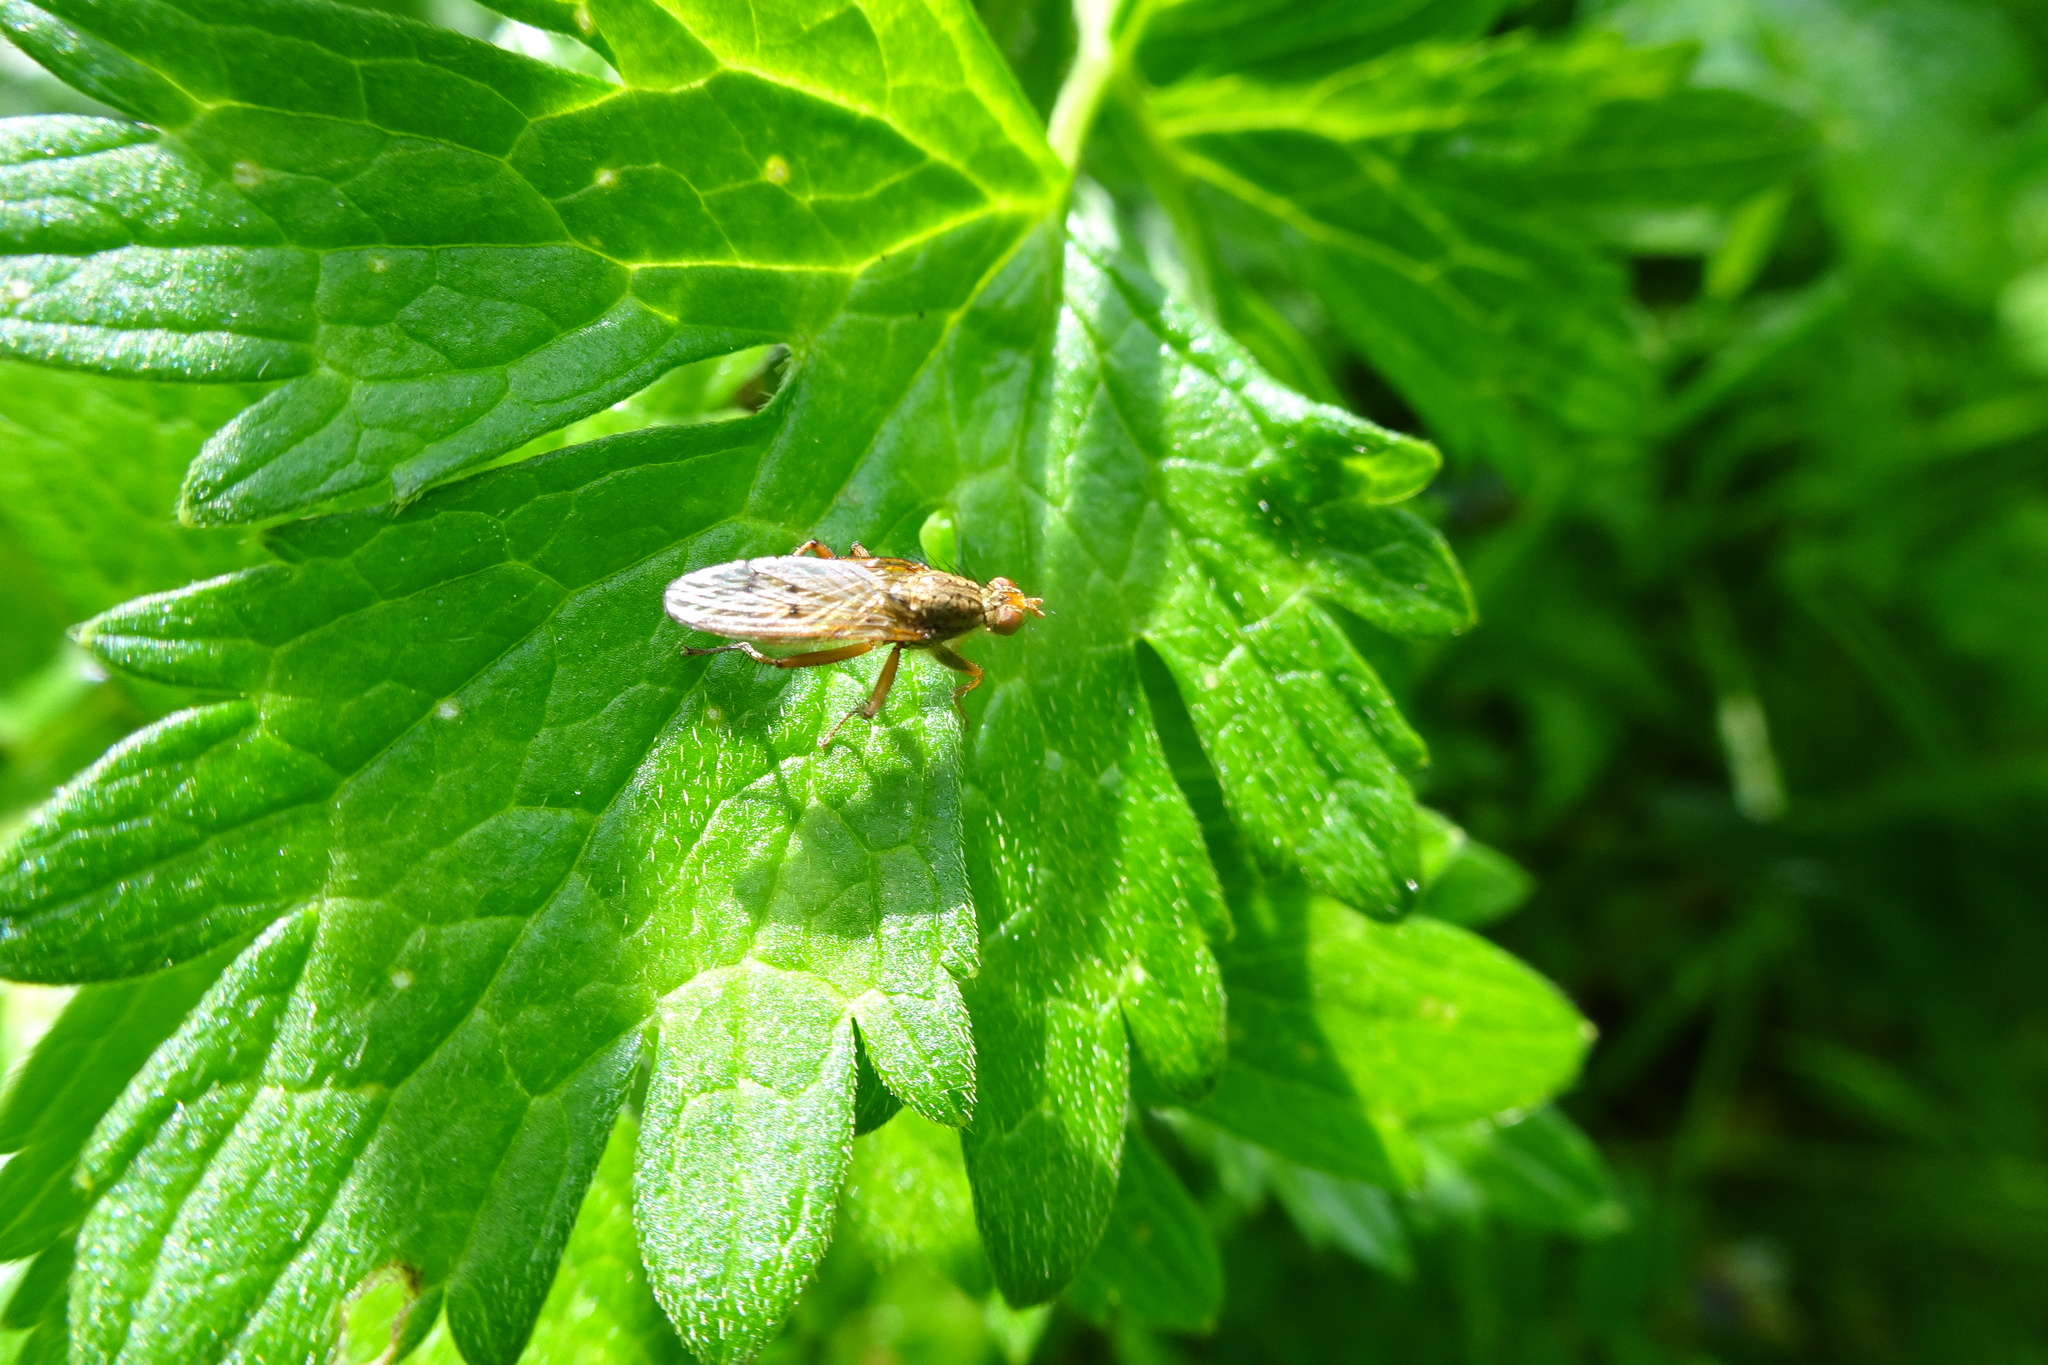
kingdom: Animalia
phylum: Arthropoda
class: Insecta
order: Diptera
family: Scathophagidae
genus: Scathophaga
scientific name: Scathophaga stercoraria
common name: Yellow dung fly
